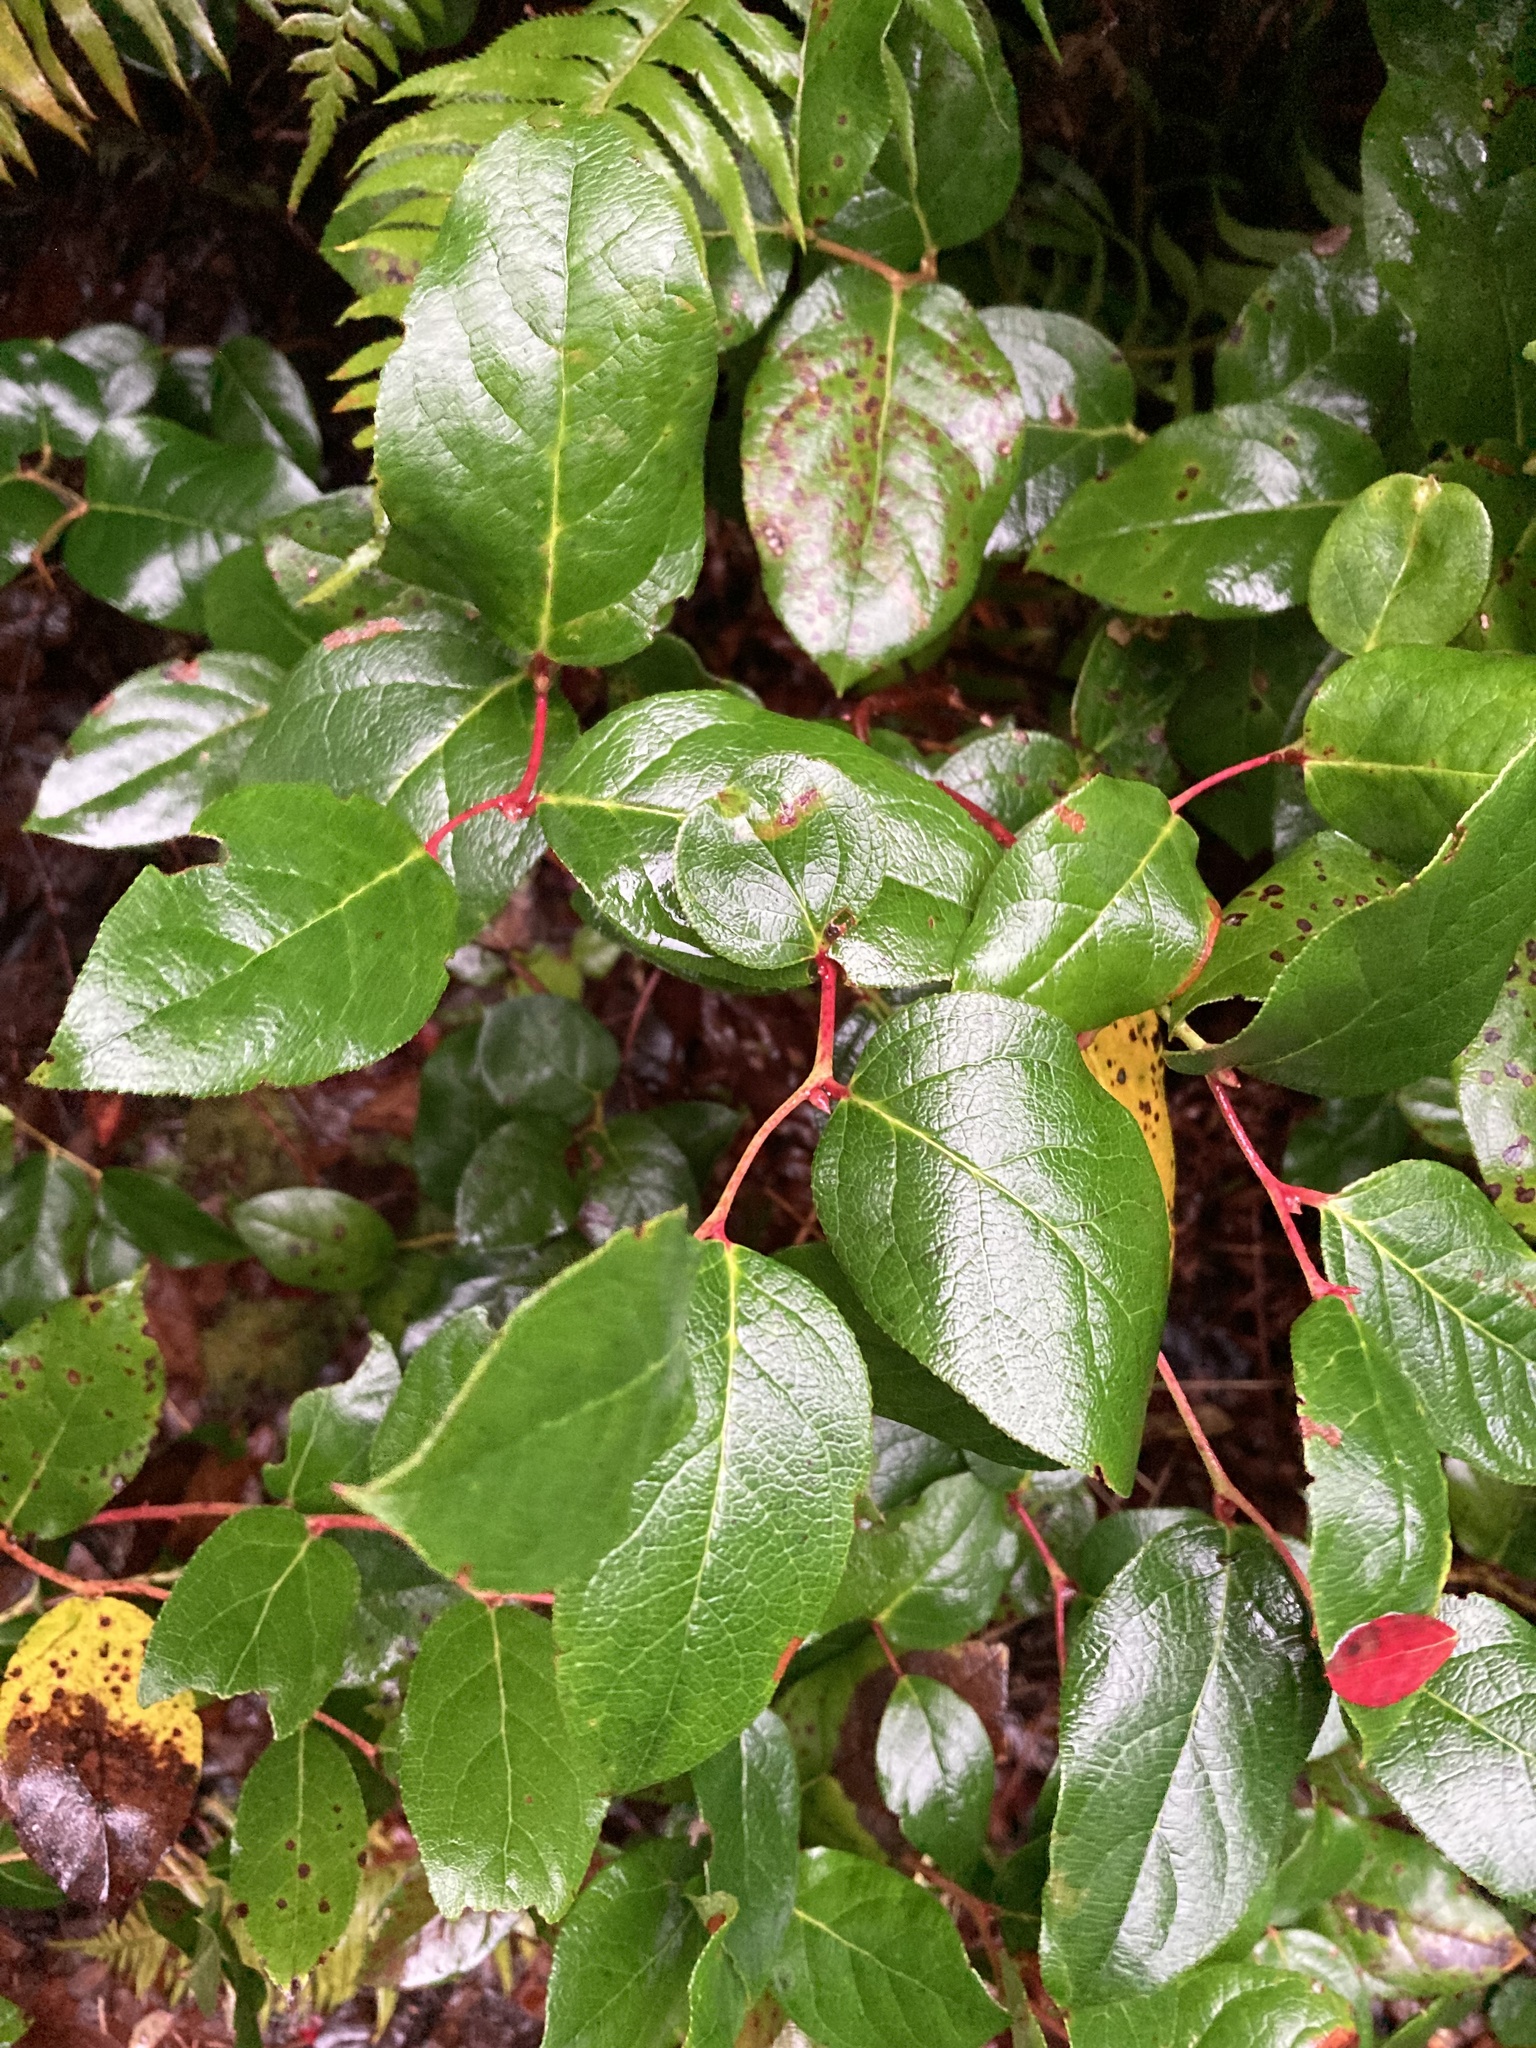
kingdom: Plantae
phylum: Tracheophyta
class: Magnoliopsida
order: Ericales
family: Ericaceae
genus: Gaultheria
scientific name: Gaultheria shallon
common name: Shallon
